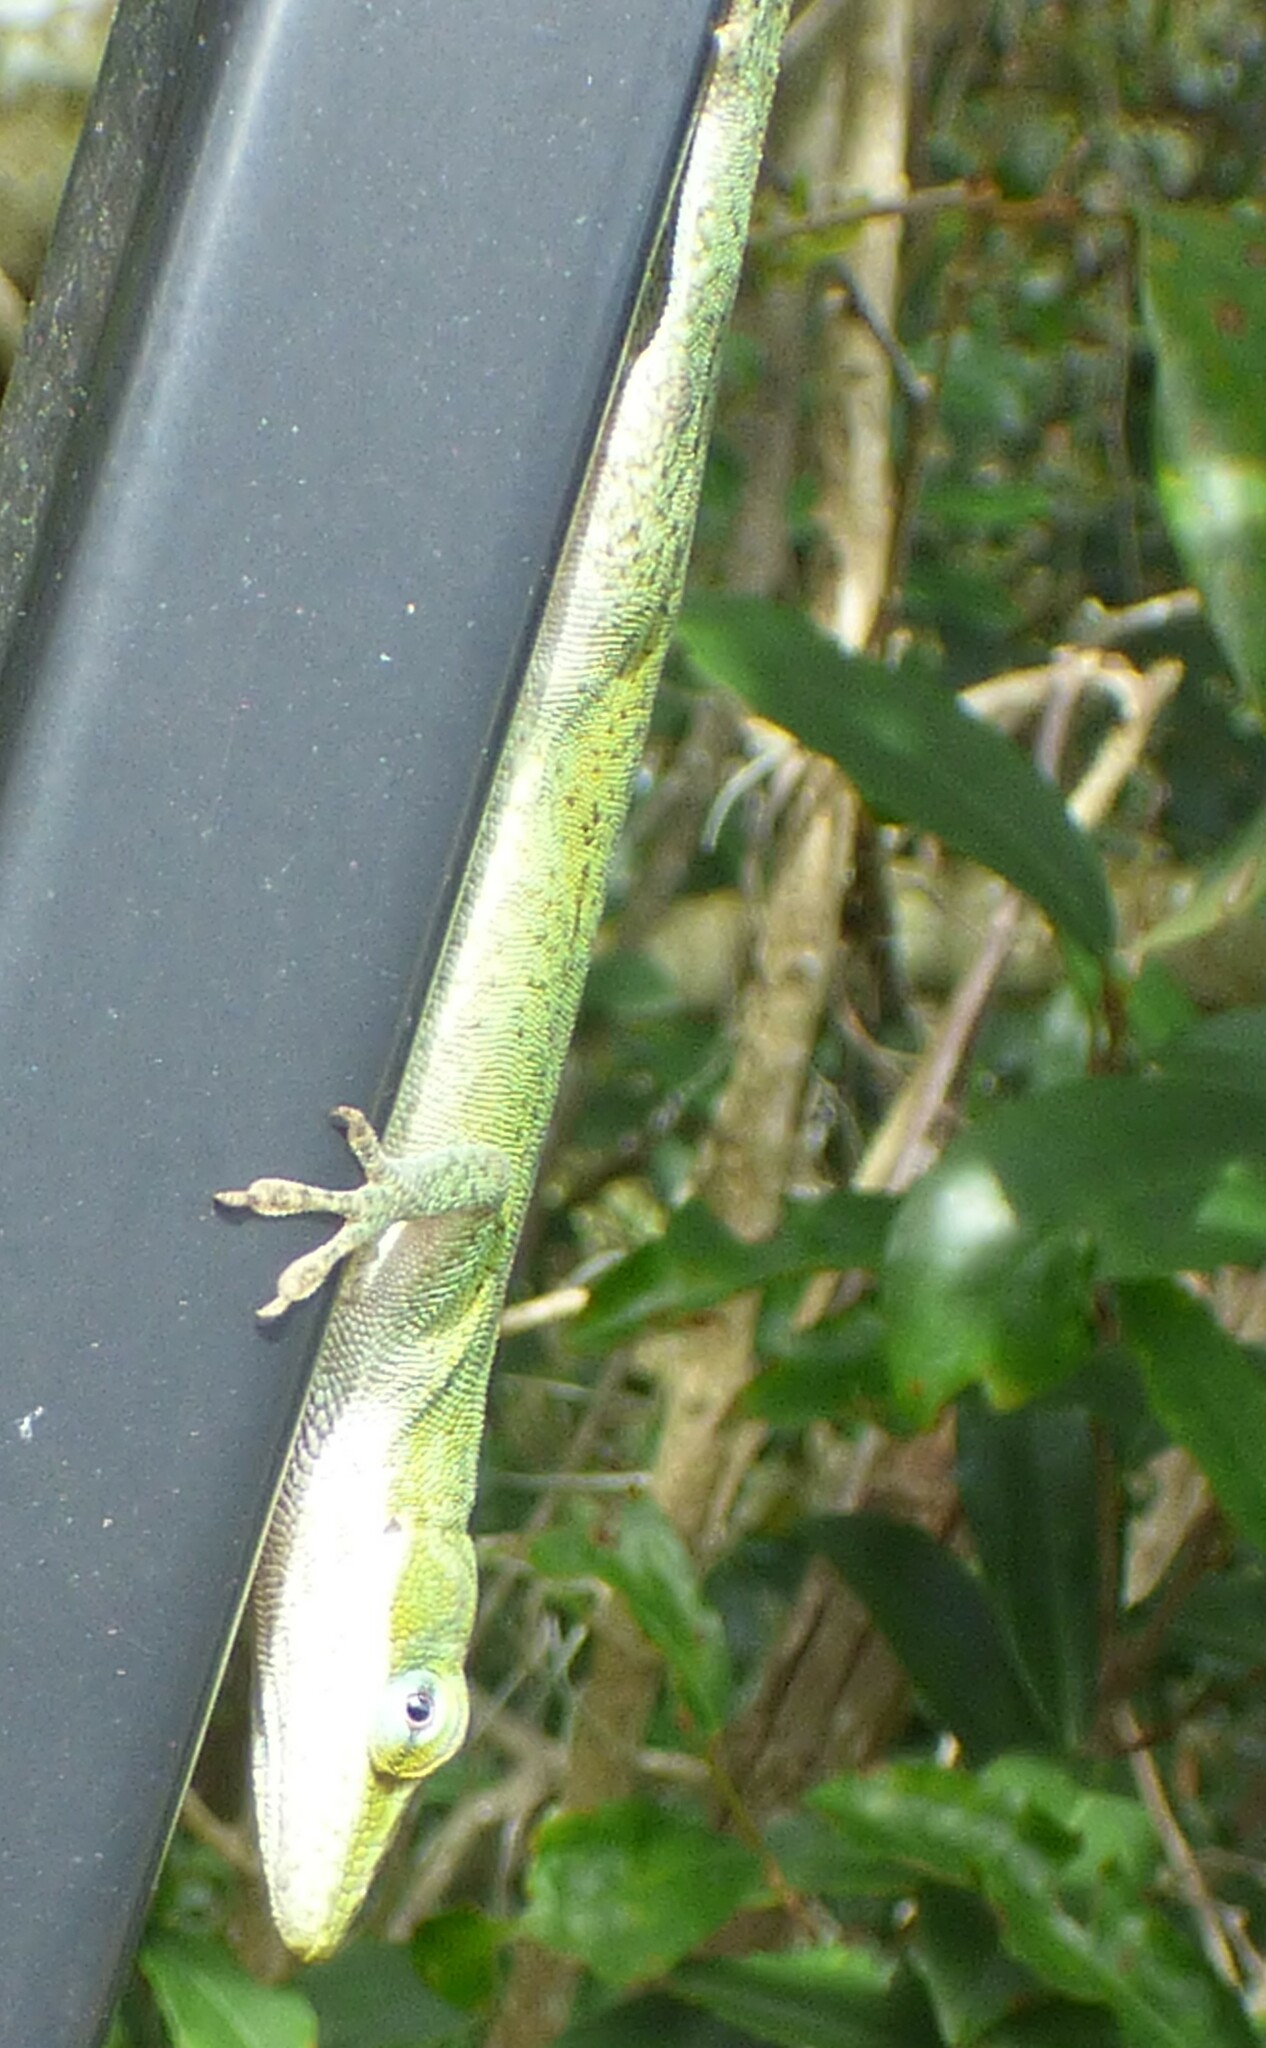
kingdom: Animalia
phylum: Chordata
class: Squamata
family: Dactyloidae
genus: Anolis
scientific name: Anolis carolinensis
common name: Green anole
